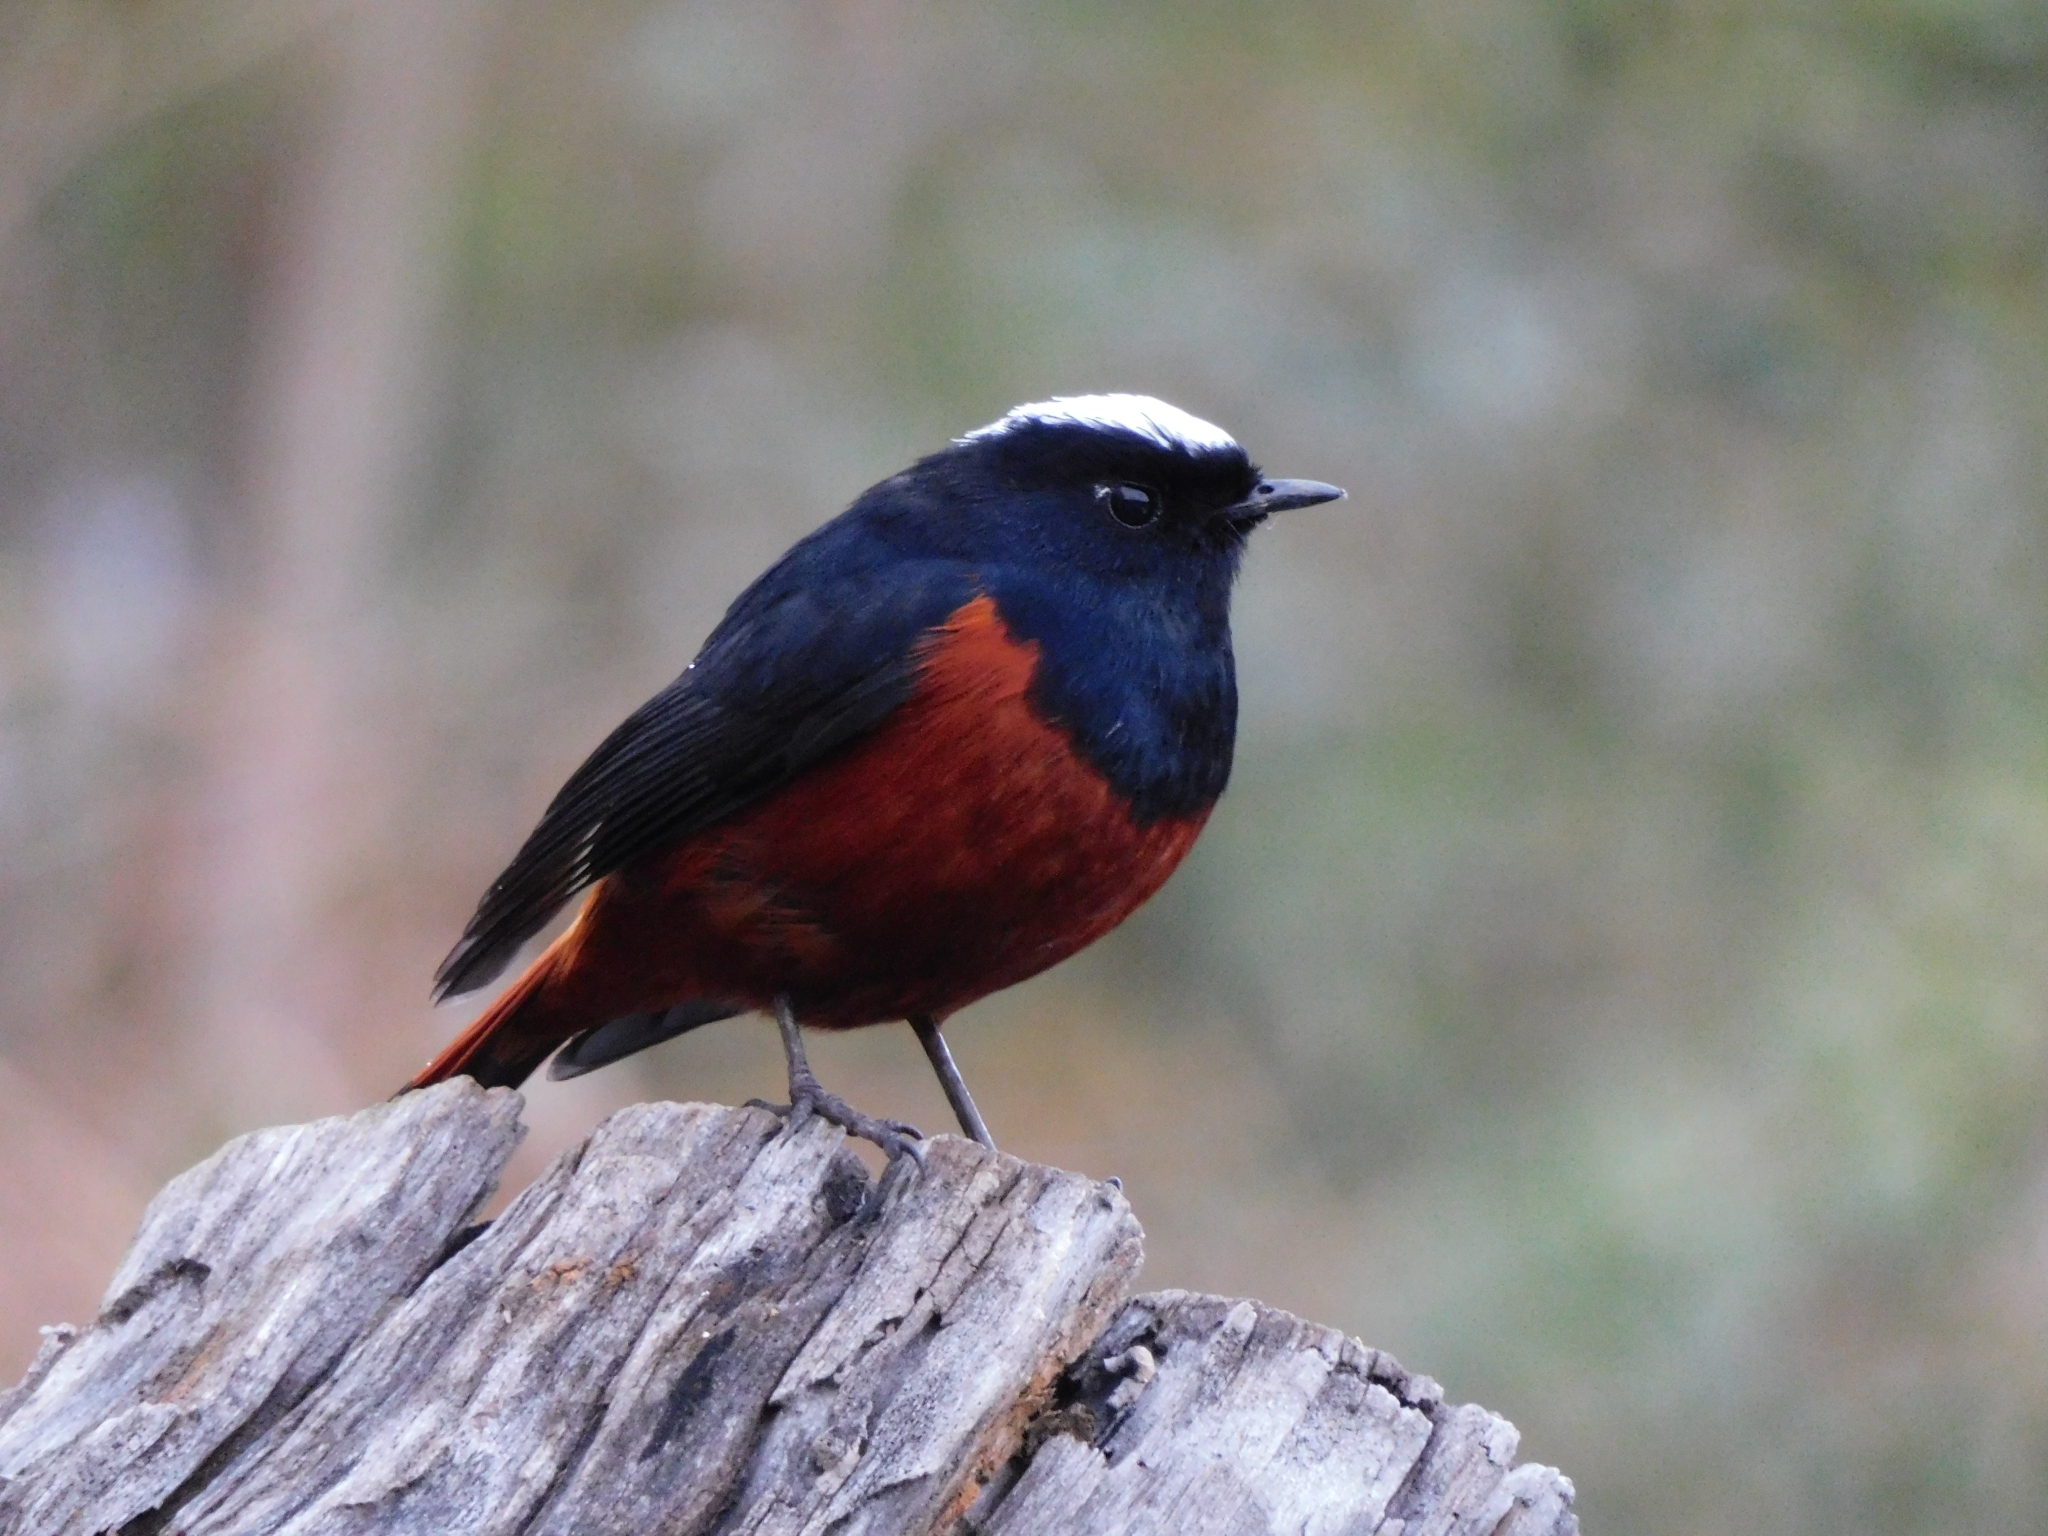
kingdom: Animalia
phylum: Chordata
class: Aves
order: Passeriformes
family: Muscicapidae
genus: Chaimarrornis
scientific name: Chaimarrornis leucocephalus
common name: White-capped redstart
